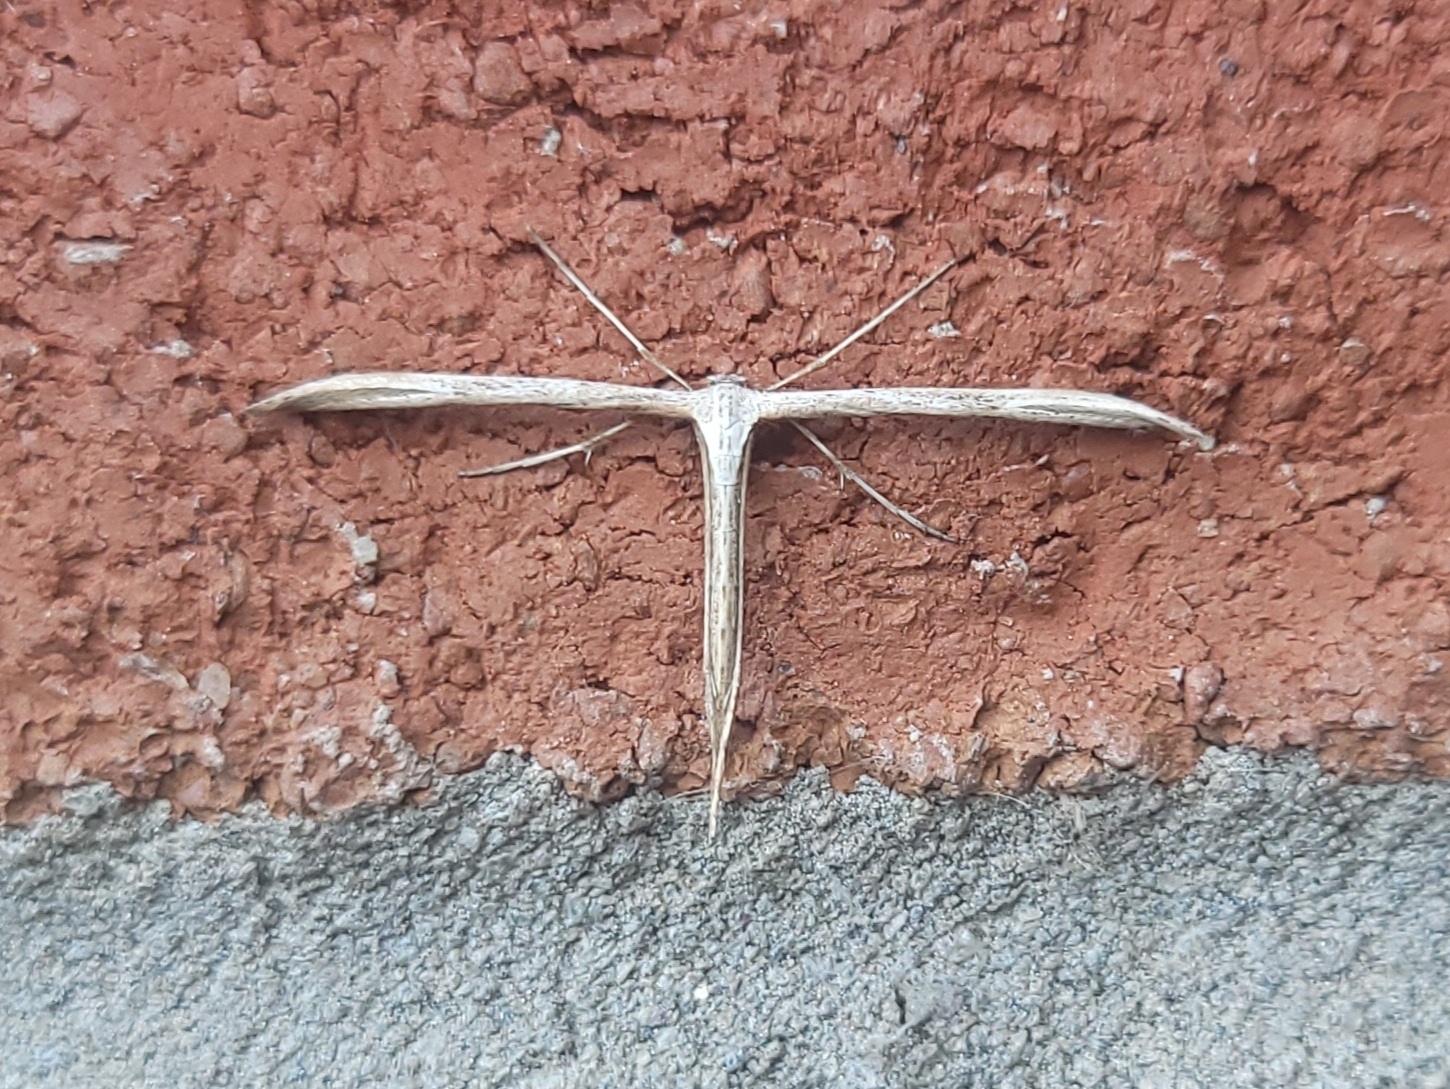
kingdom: Animalia
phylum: Arthropoda
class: Insecta
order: Lepidoptera
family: Pterophoridae
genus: Emmelina
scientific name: Emmelina monodactyla
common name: Common plume
